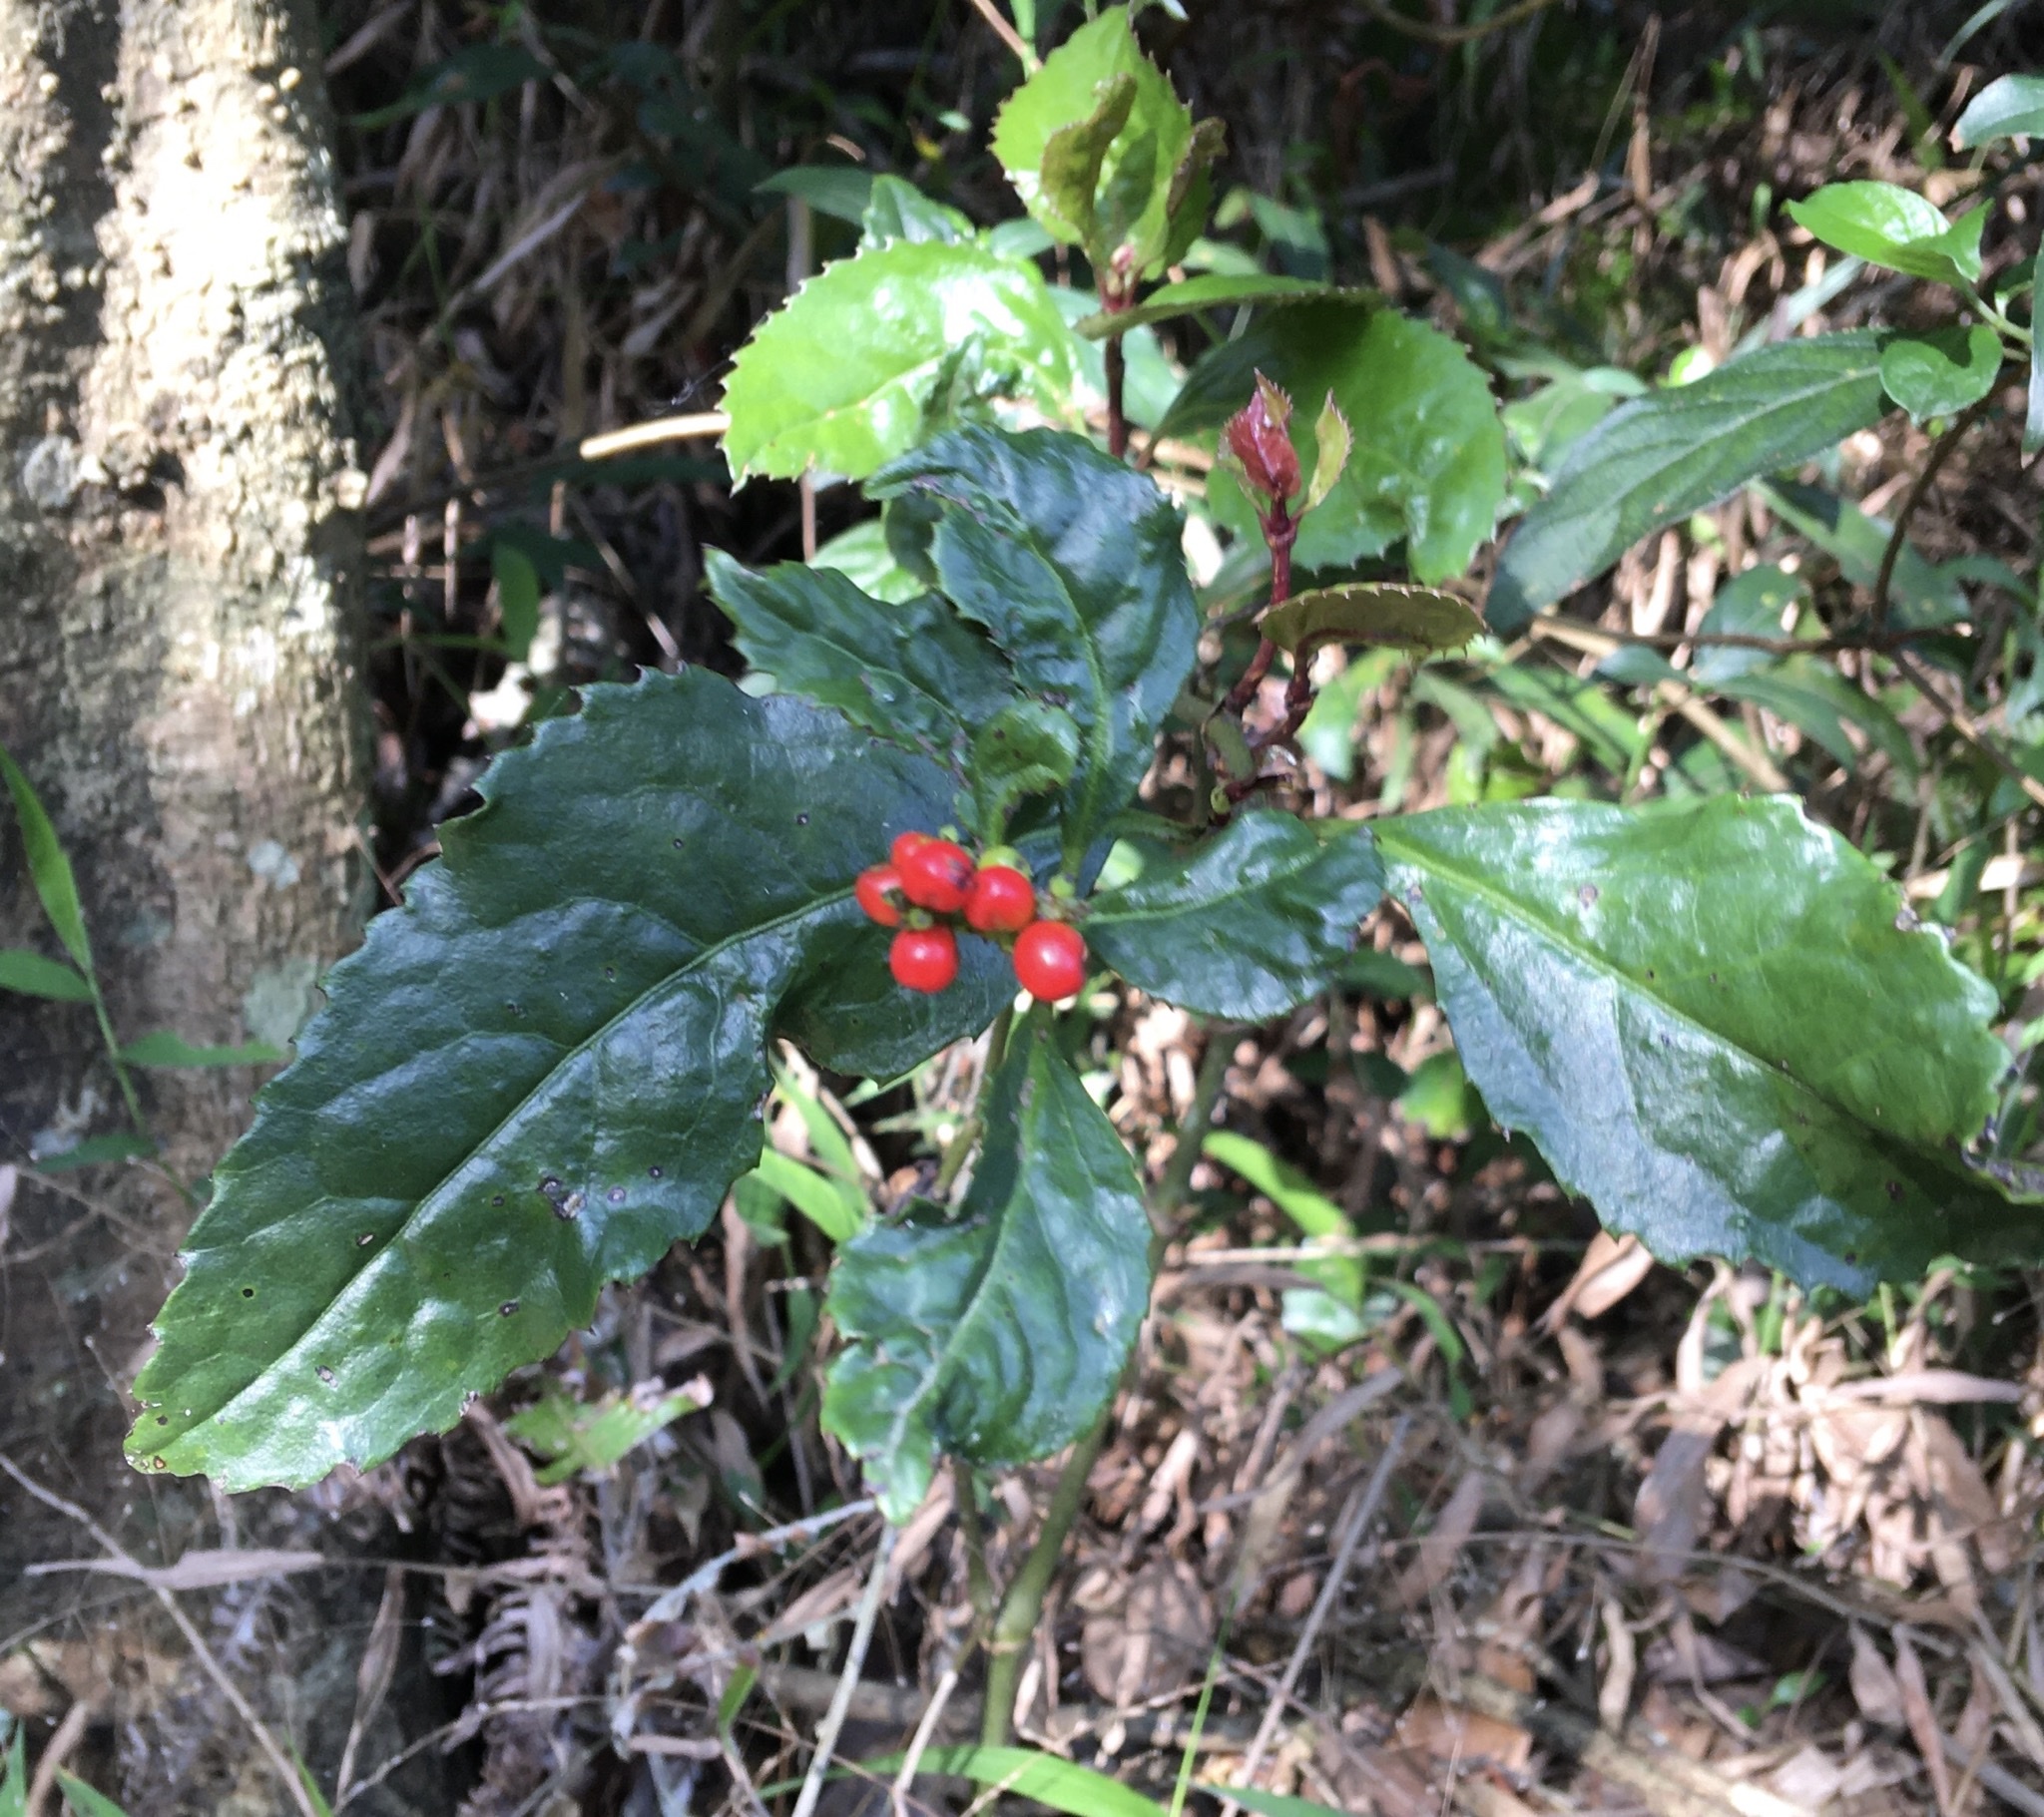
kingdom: Plantae
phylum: Tracheophyta
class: Magnoliopsida
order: Chloranthales
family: Chloranthaceae
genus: Sarcandra
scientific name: Sarcandra glabra
